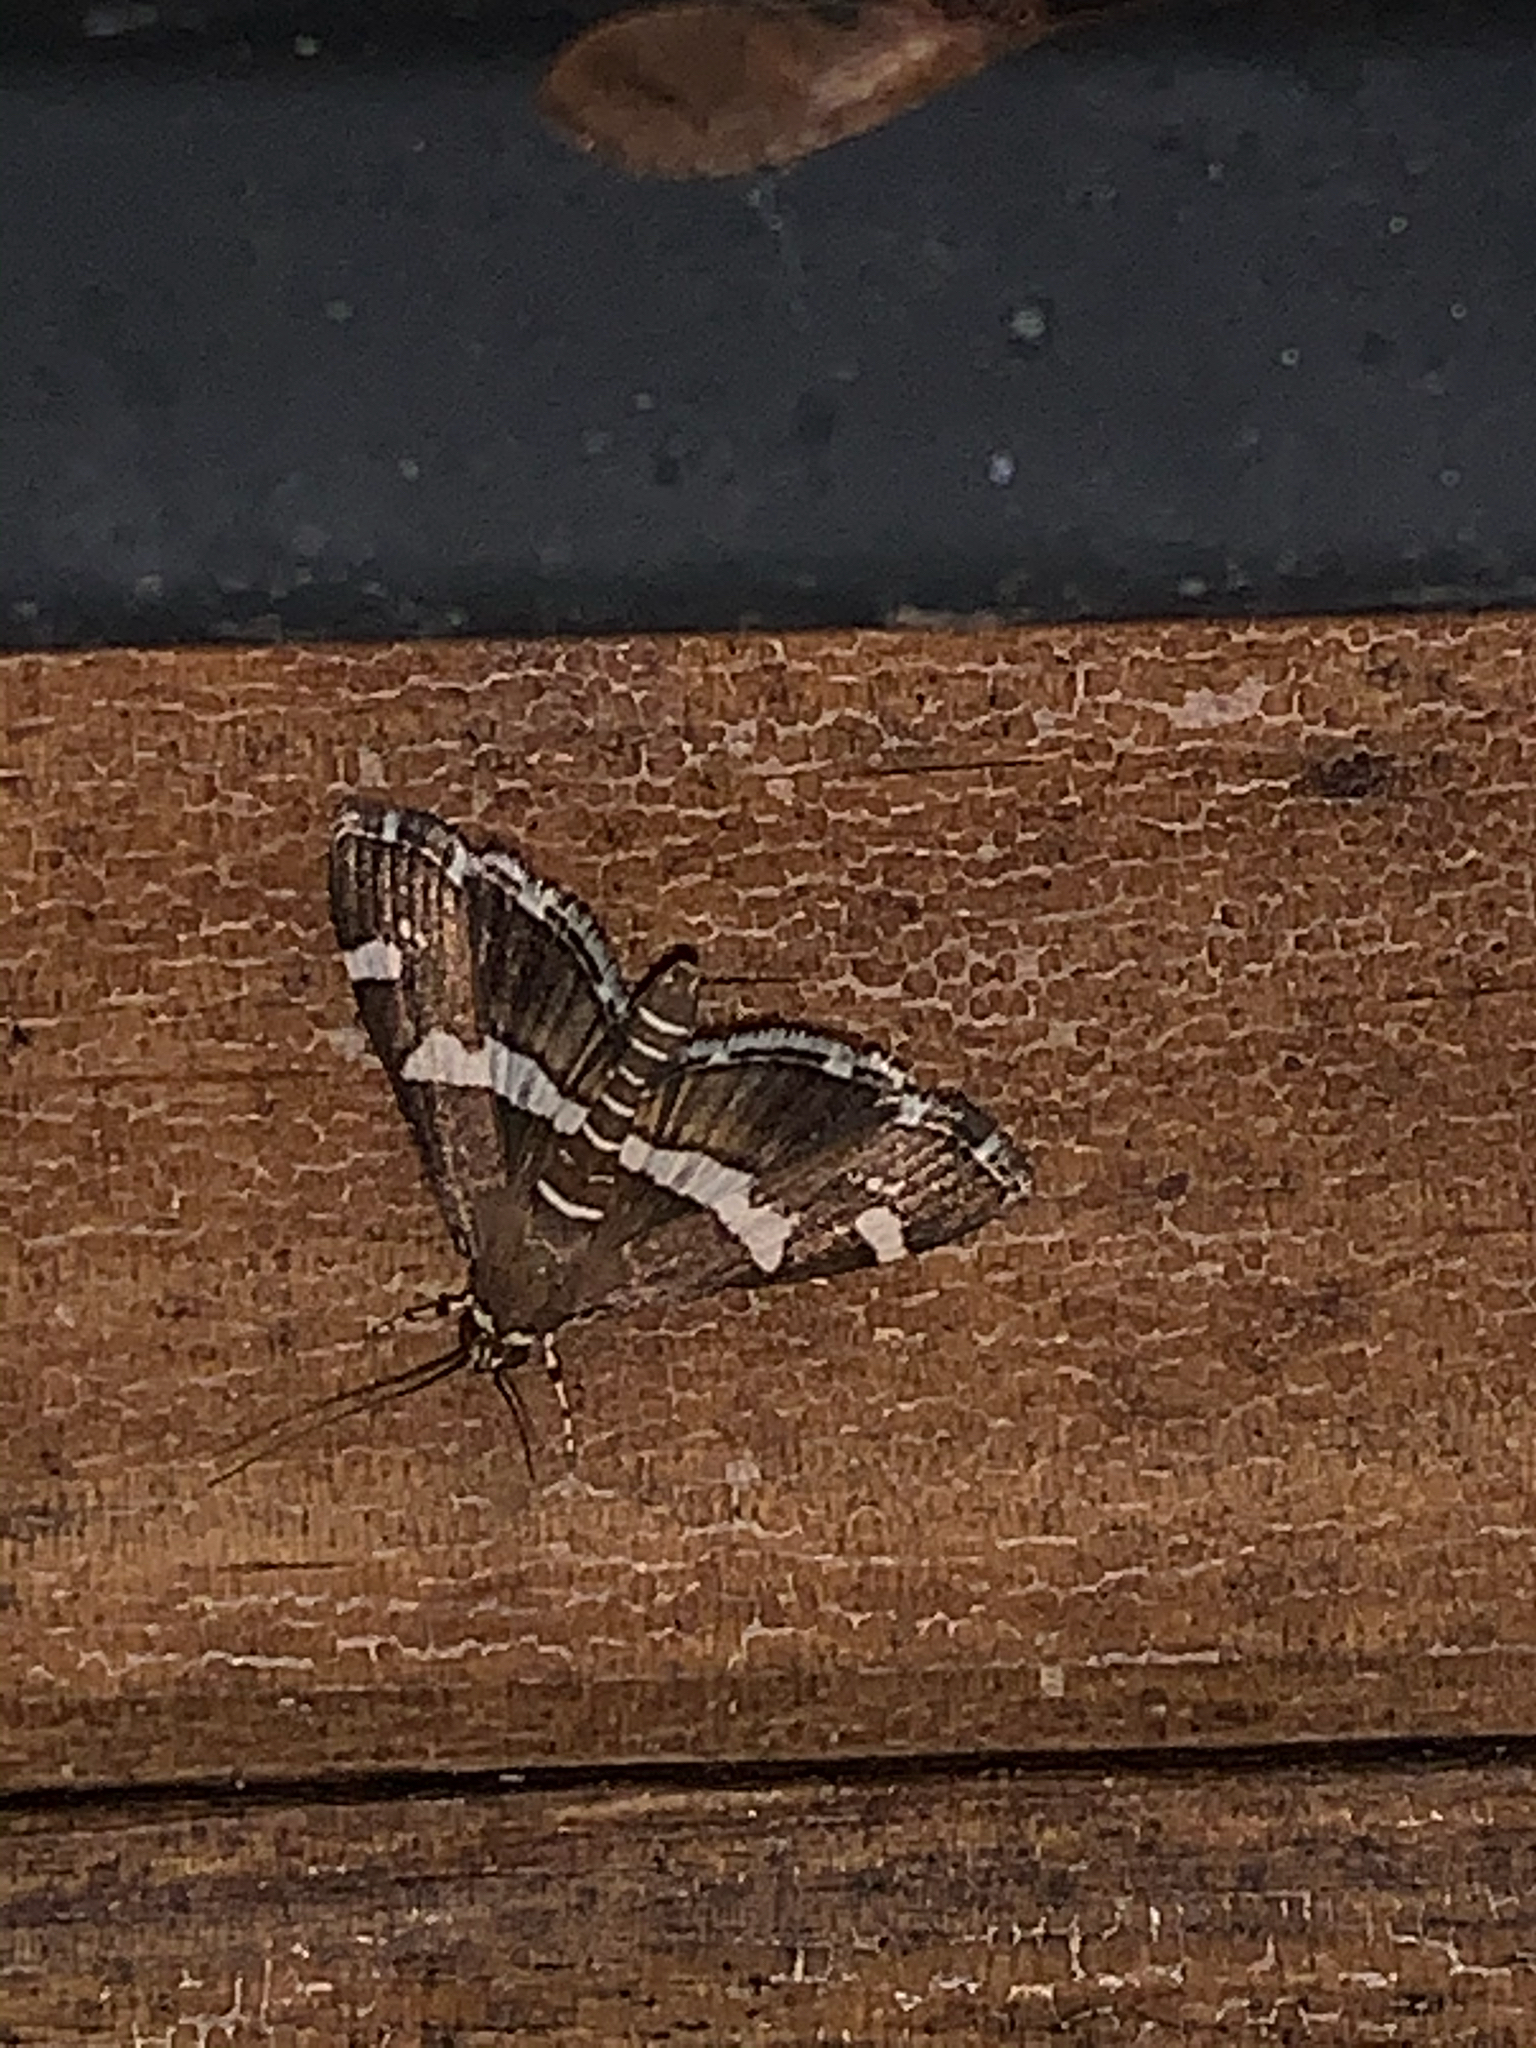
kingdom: Animalia
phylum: Arthropoda
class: Insecta
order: Lepidoptera
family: Crambidae
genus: Spoladea
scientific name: Spoladea recurvalis
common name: Beet webworm moth
